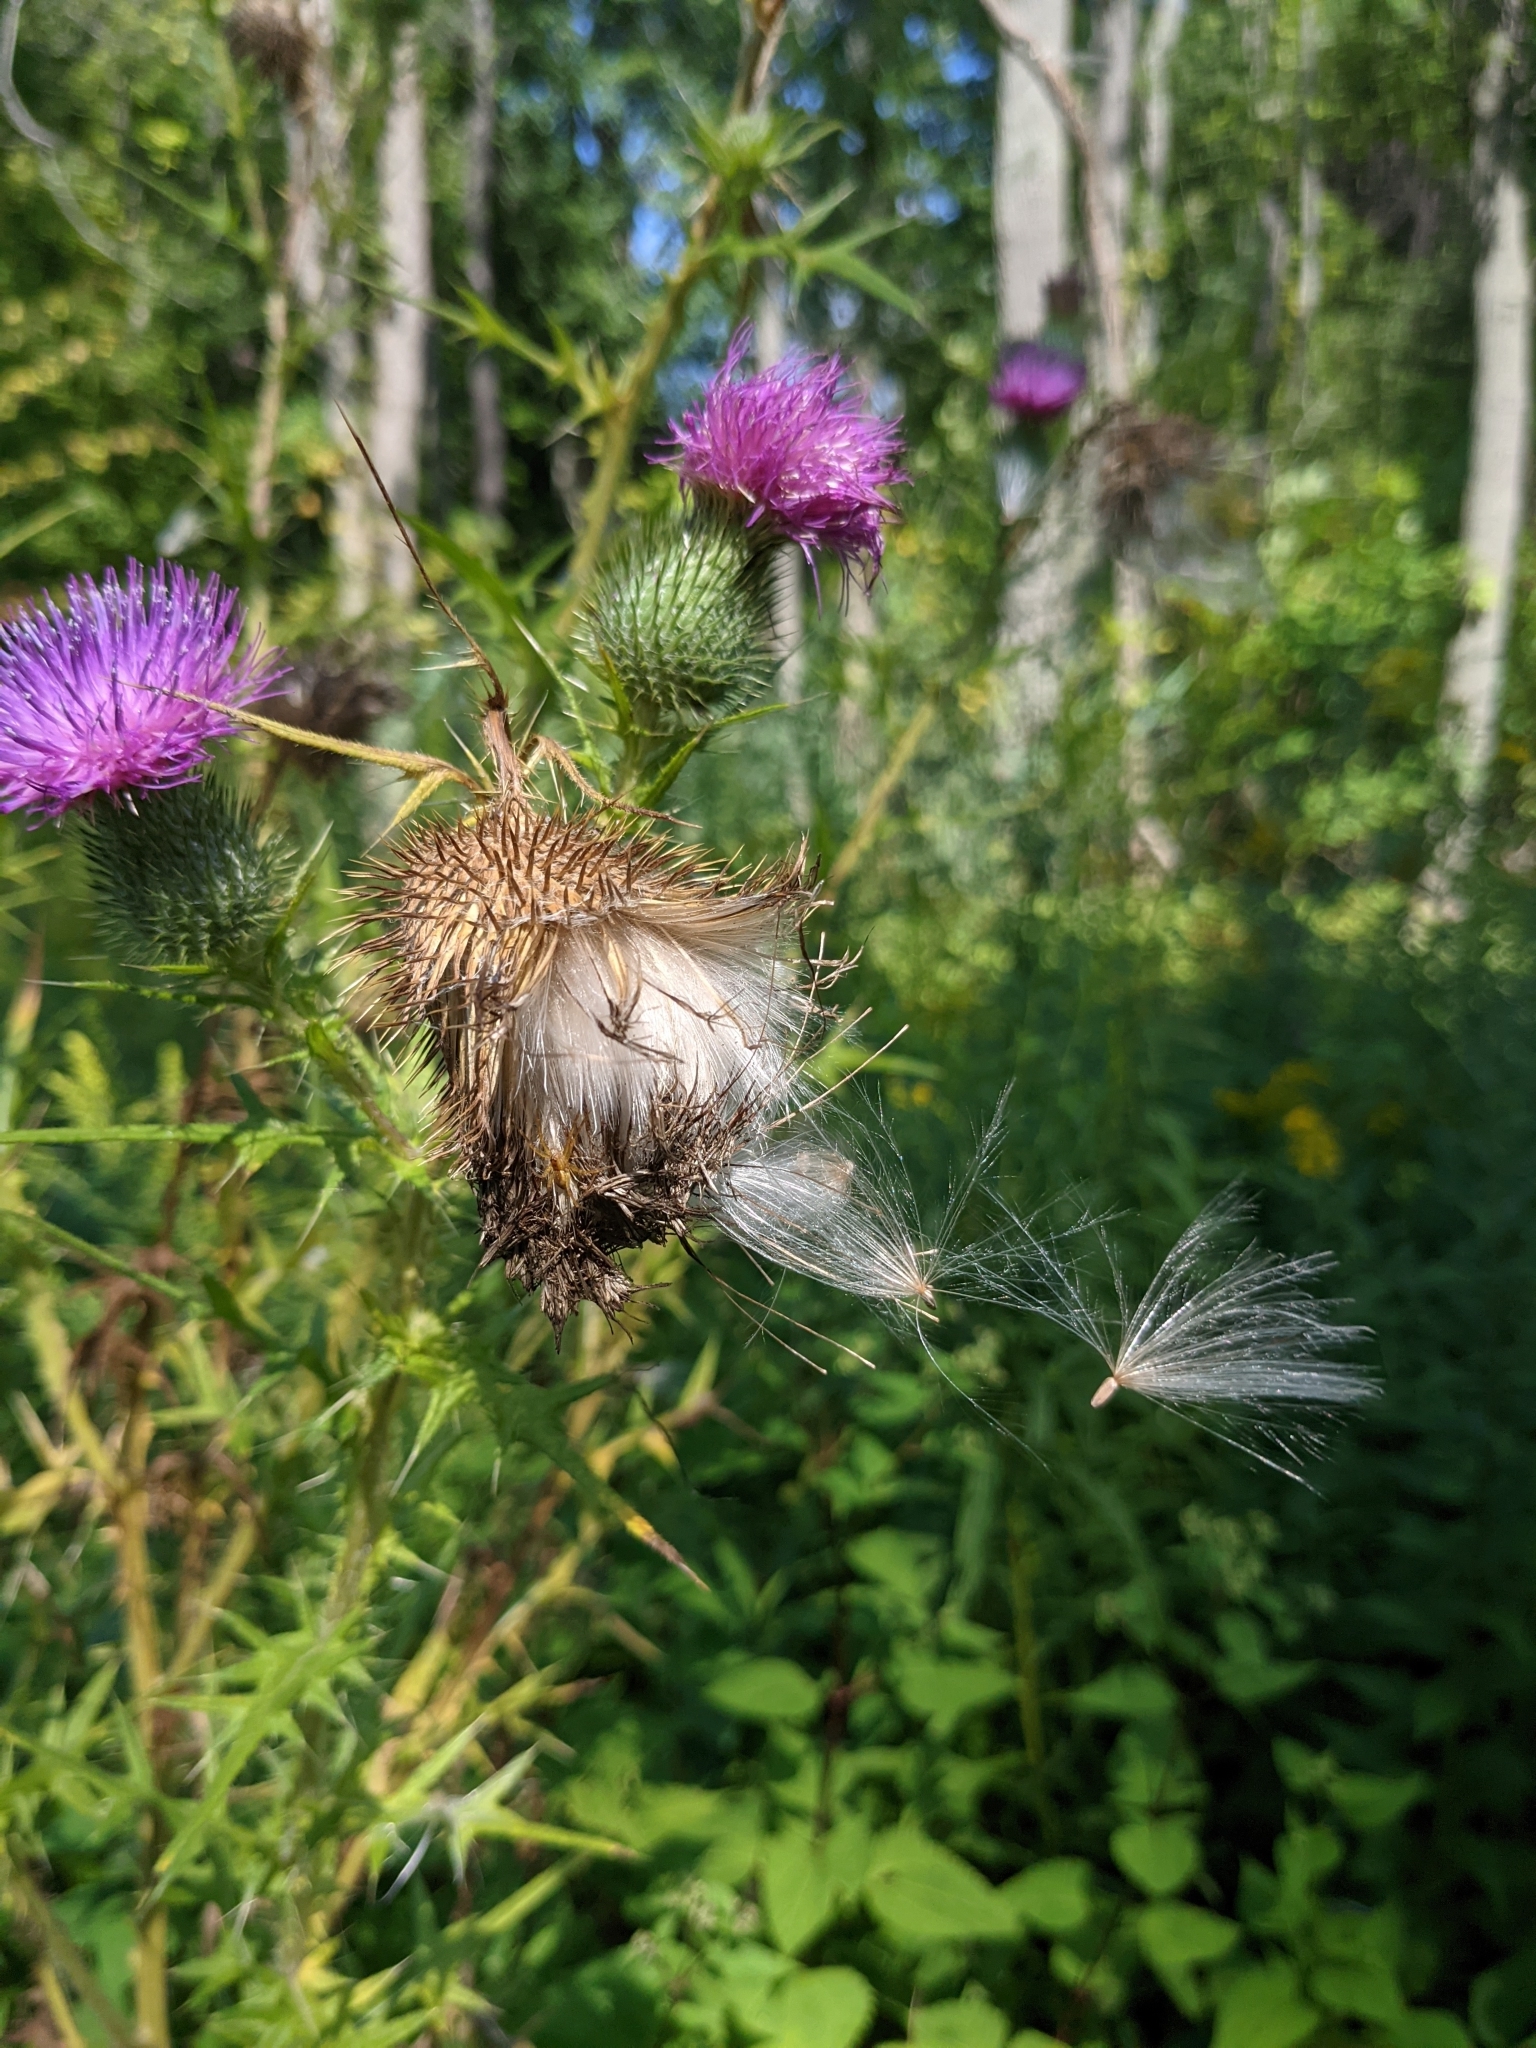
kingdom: Plantae
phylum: Tracheophyta
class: Magnoliopsida
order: Asterales
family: Asteraceae
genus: Cirsium
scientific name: Cirsium vulgare
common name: Bull thistle
